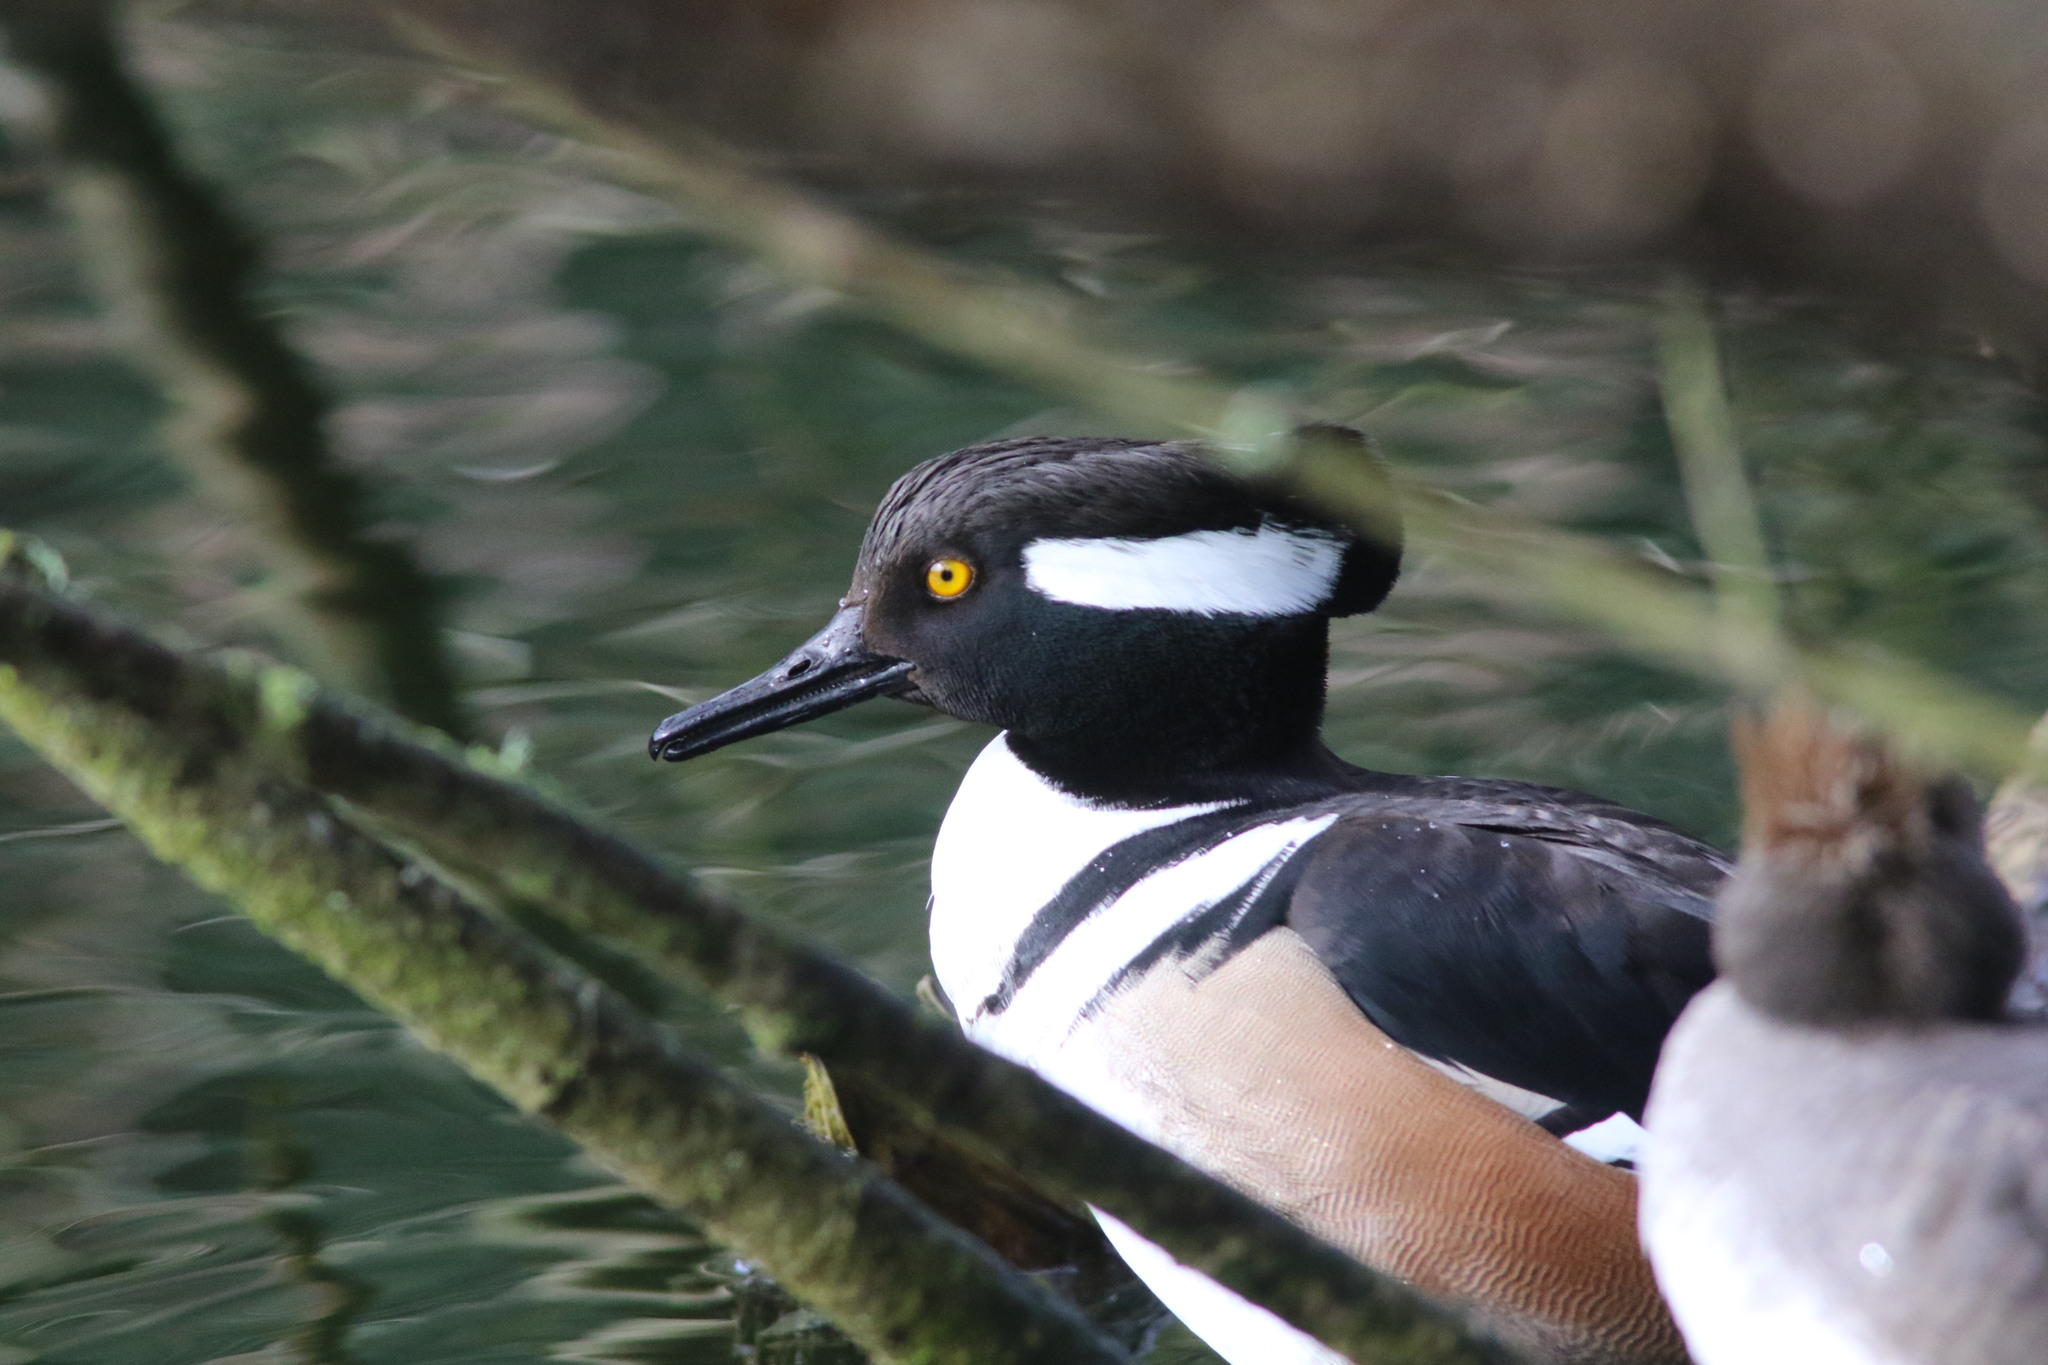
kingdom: Animalia
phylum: Chordata
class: Aves
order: Anseriformes
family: Anatidae
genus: Lophodytes
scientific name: Lophodytes cucullatus
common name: Hooded merganser
